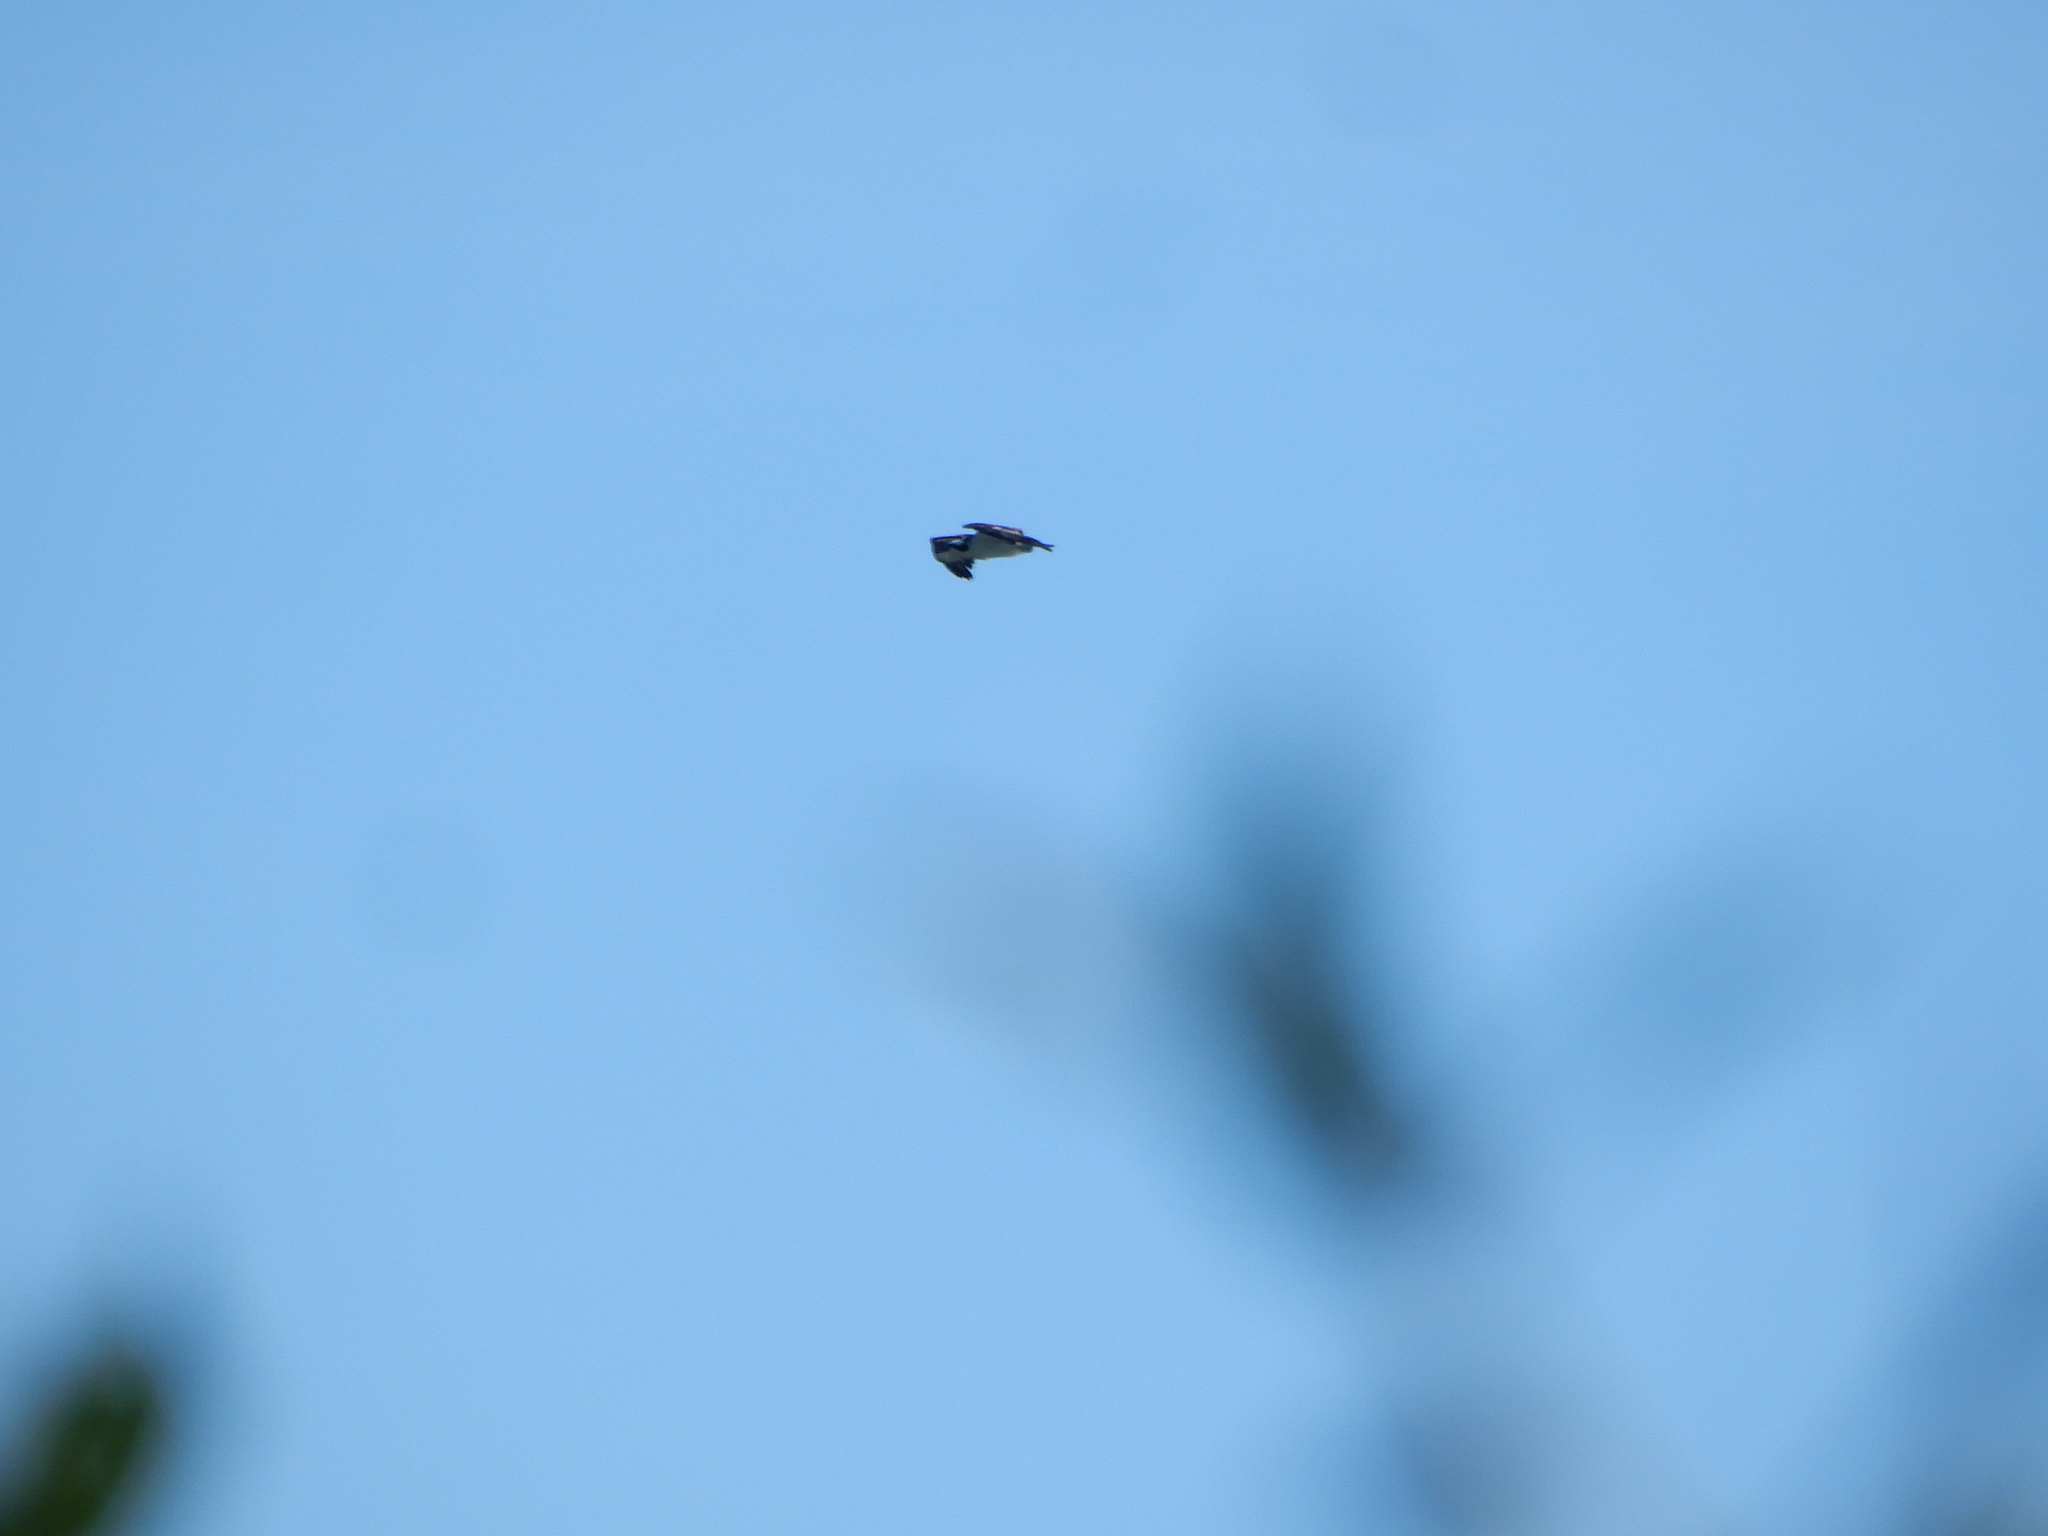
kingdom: Animalia
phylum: Chordata
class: Aves
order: Accipitriformes
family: Pandionidae
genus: Pandion
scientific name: Pandion haliaetus
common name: Osprey
